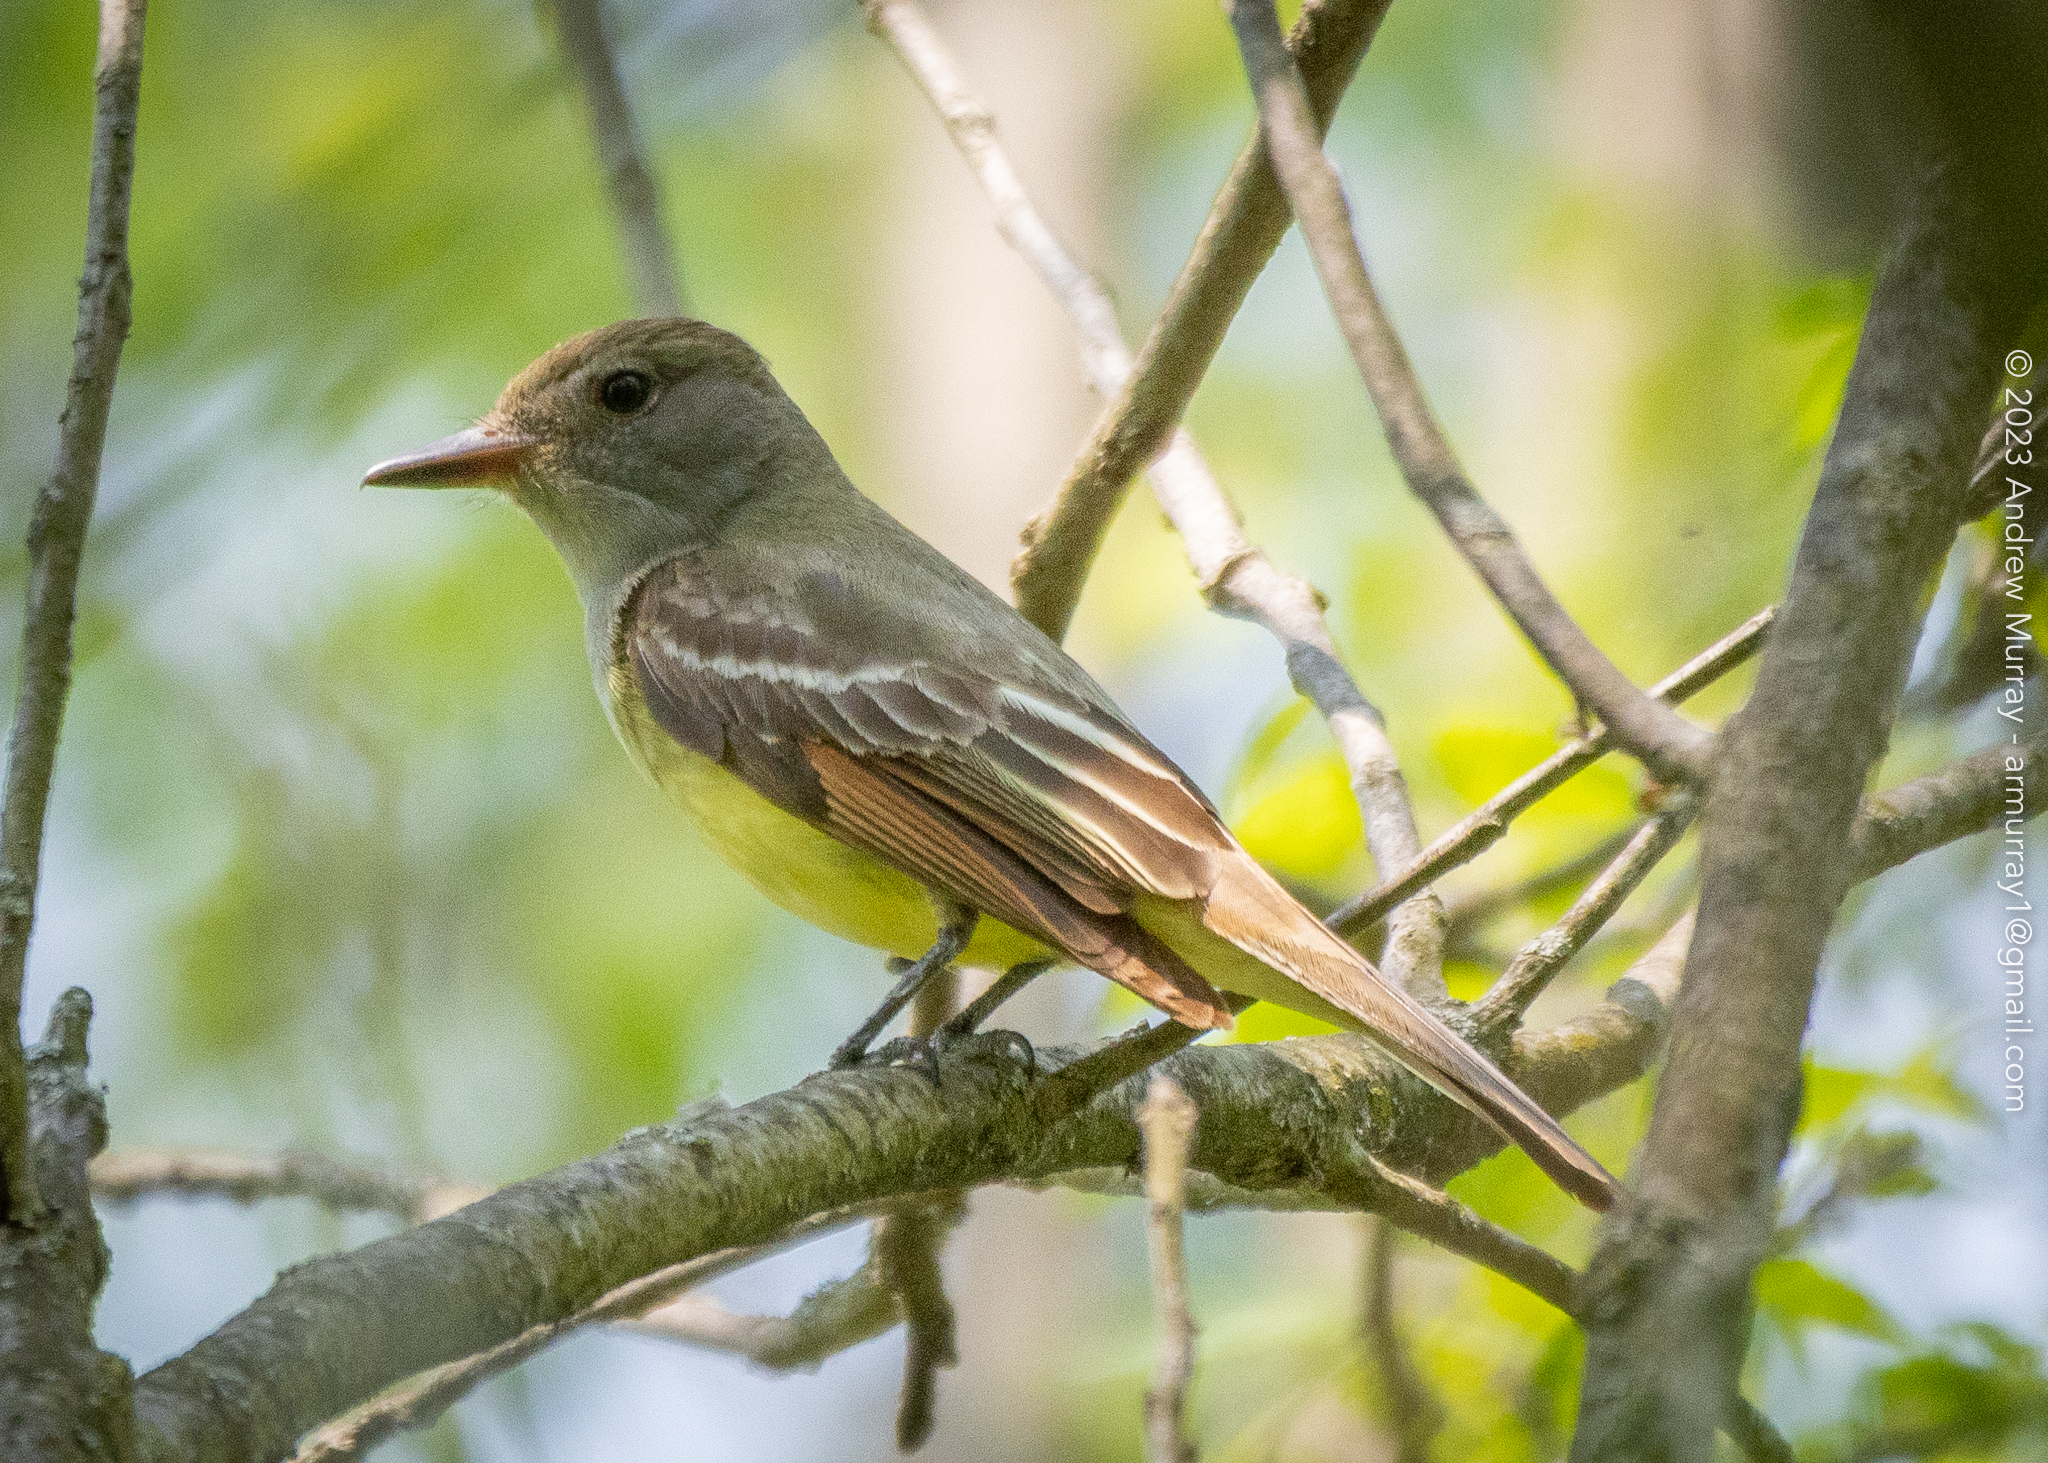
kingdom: Animalia
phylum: Chordata
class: Aves
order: Passeriformes
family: Tyrannidae
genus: Myiarchus
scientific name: Myiarchus crinitus
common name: Great crested flycatcher
